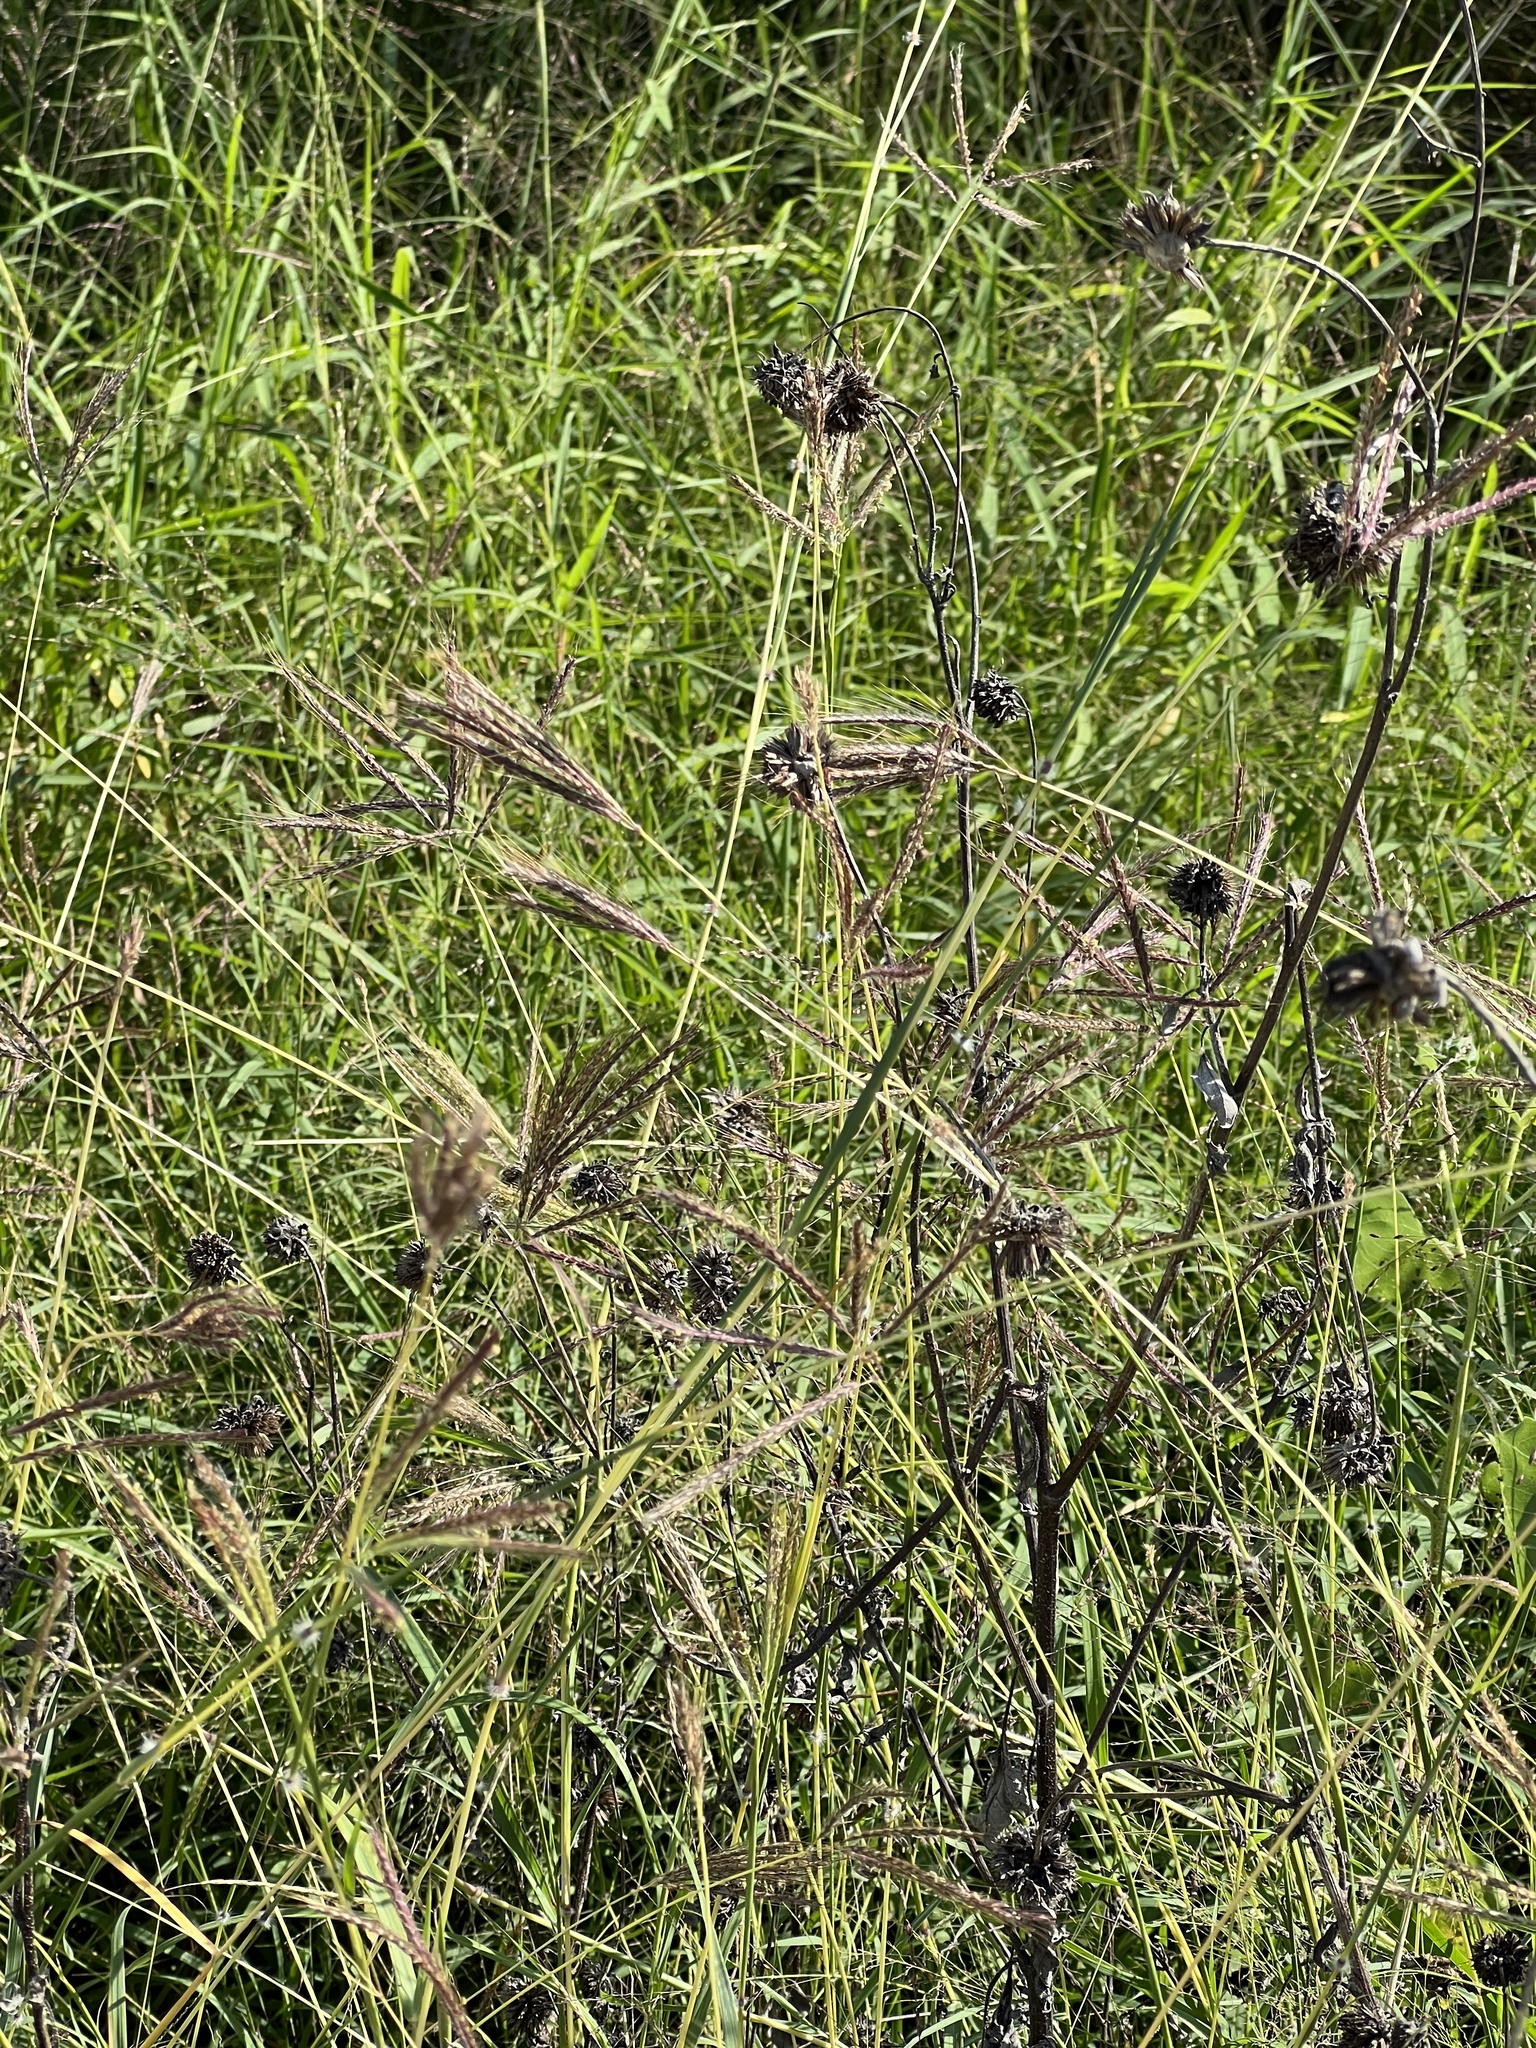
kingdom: Plantae
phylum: Tracheophyta
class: Liliopsida
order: Poales
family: Poaceae
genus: Dichanthium
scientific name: Dichanthium annulatum
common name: Kleberg's bluestem
